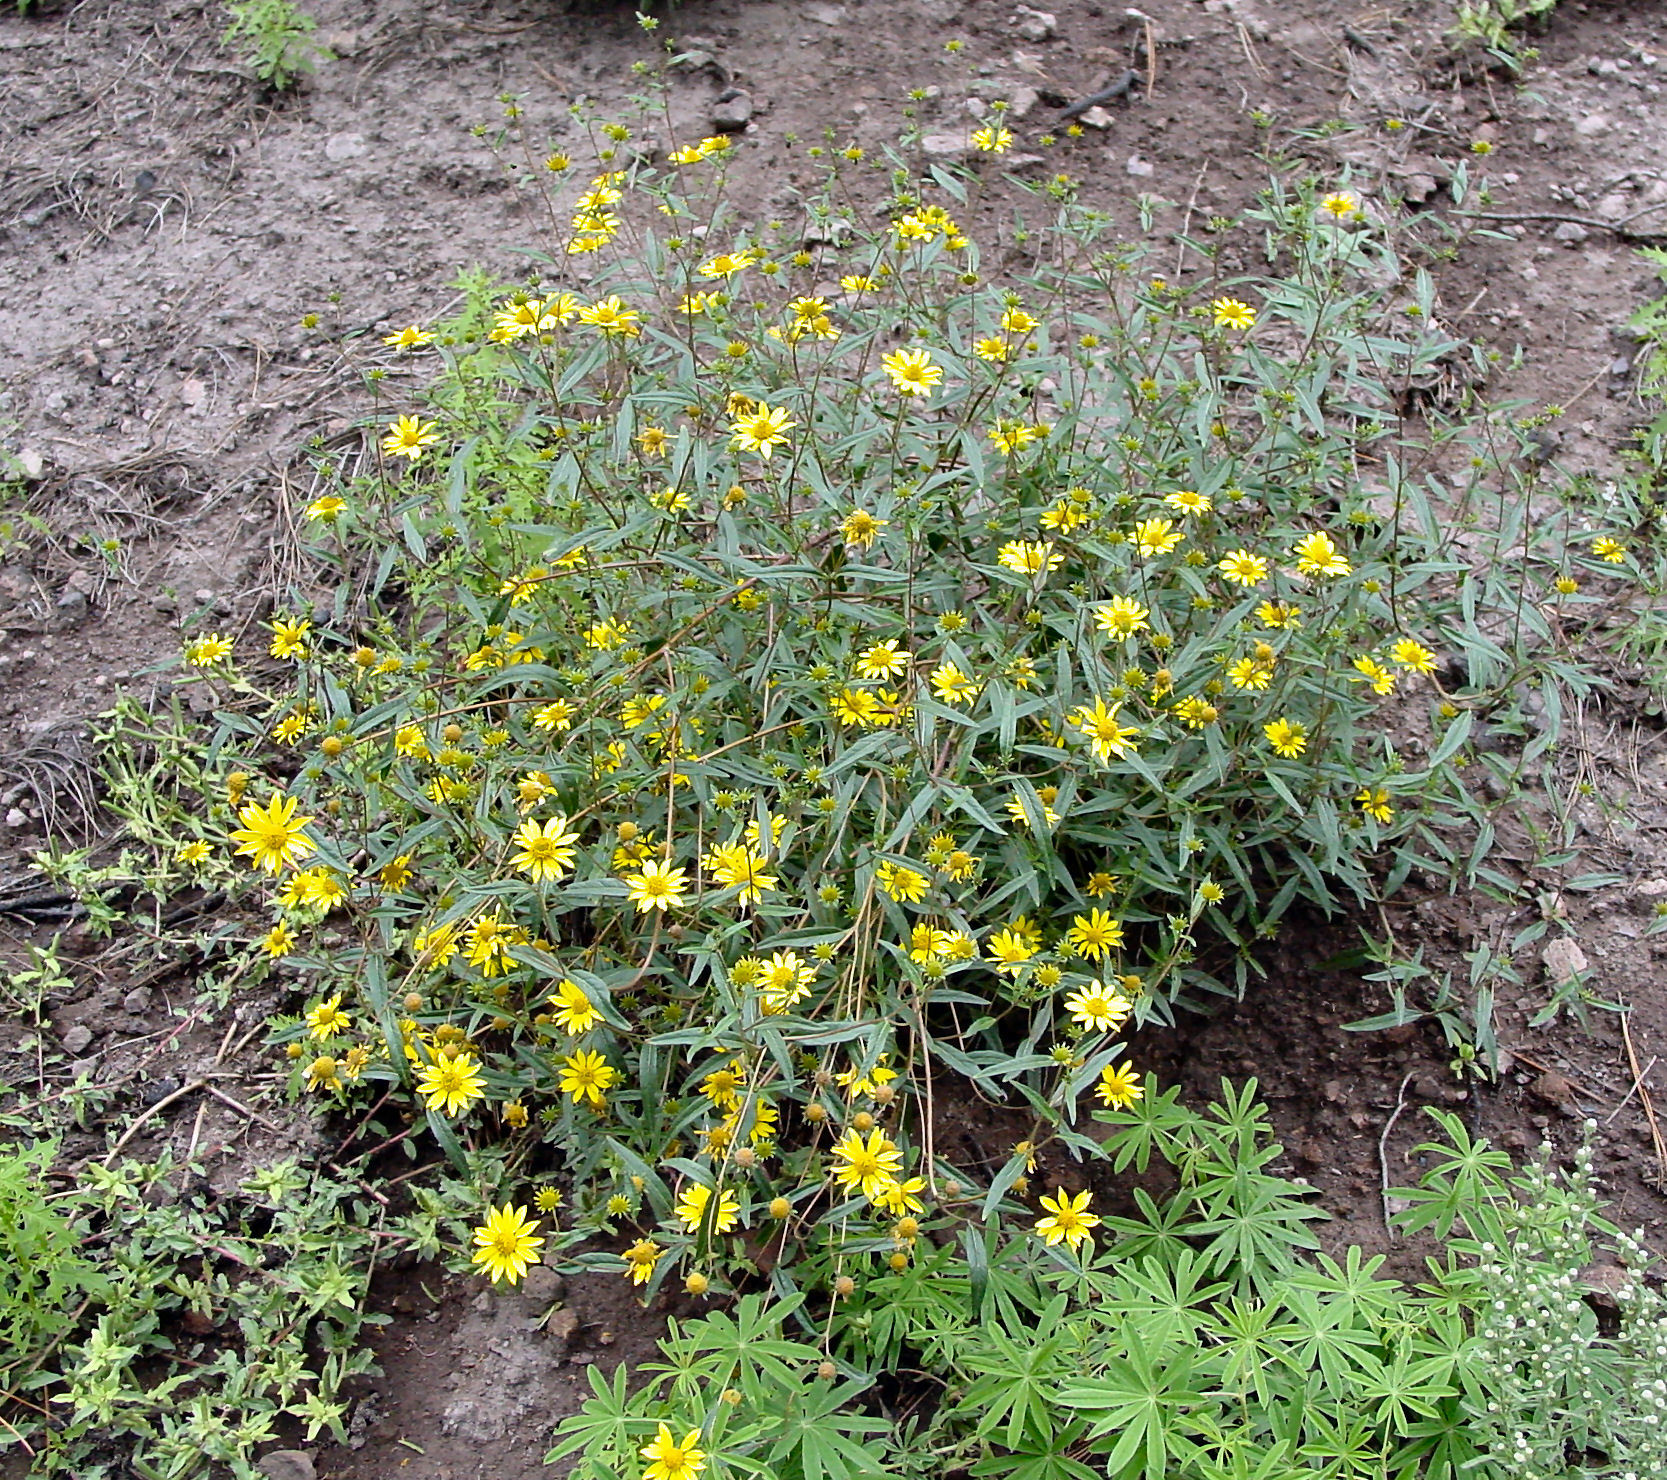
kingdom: Plantae
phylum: Tracheophyta
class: Magnoliopsida
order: Asterales
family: Asteraceae
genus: Heliomeris
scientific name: Heliomeris multiflora
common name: Showy goldeneye
